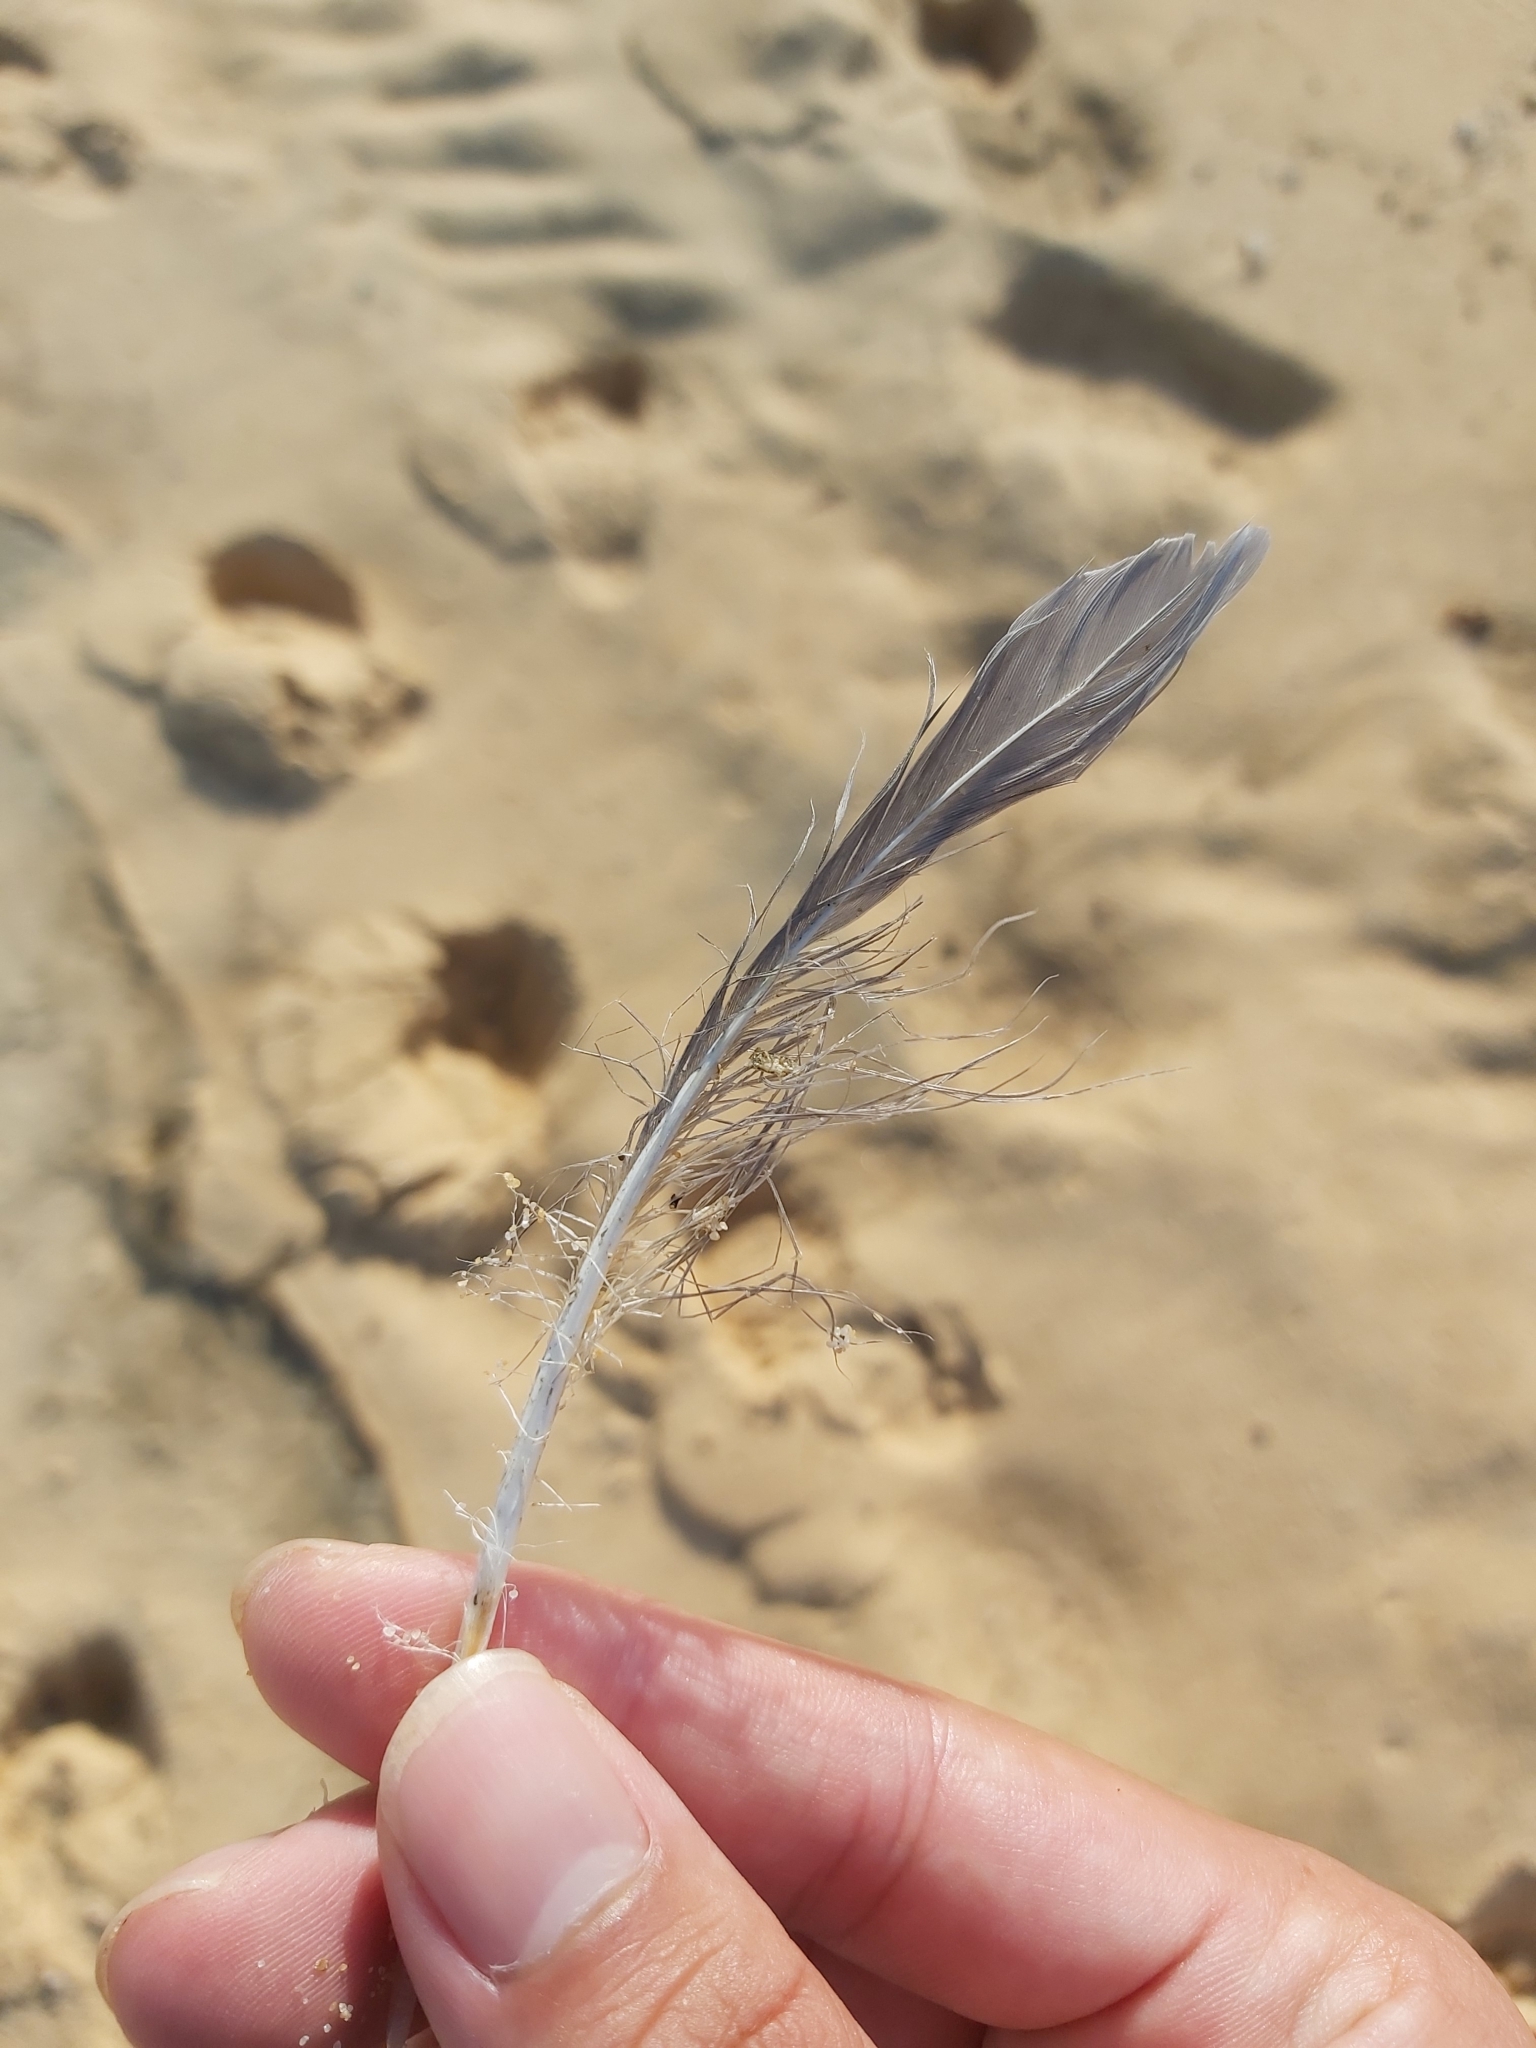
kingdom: Animalia
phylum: Chordata
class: Aves
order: Charadriiformes
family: Laridae
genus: Chroicocephalus
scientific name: Chroicocephalus novaehollandiae
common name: Silver gull
